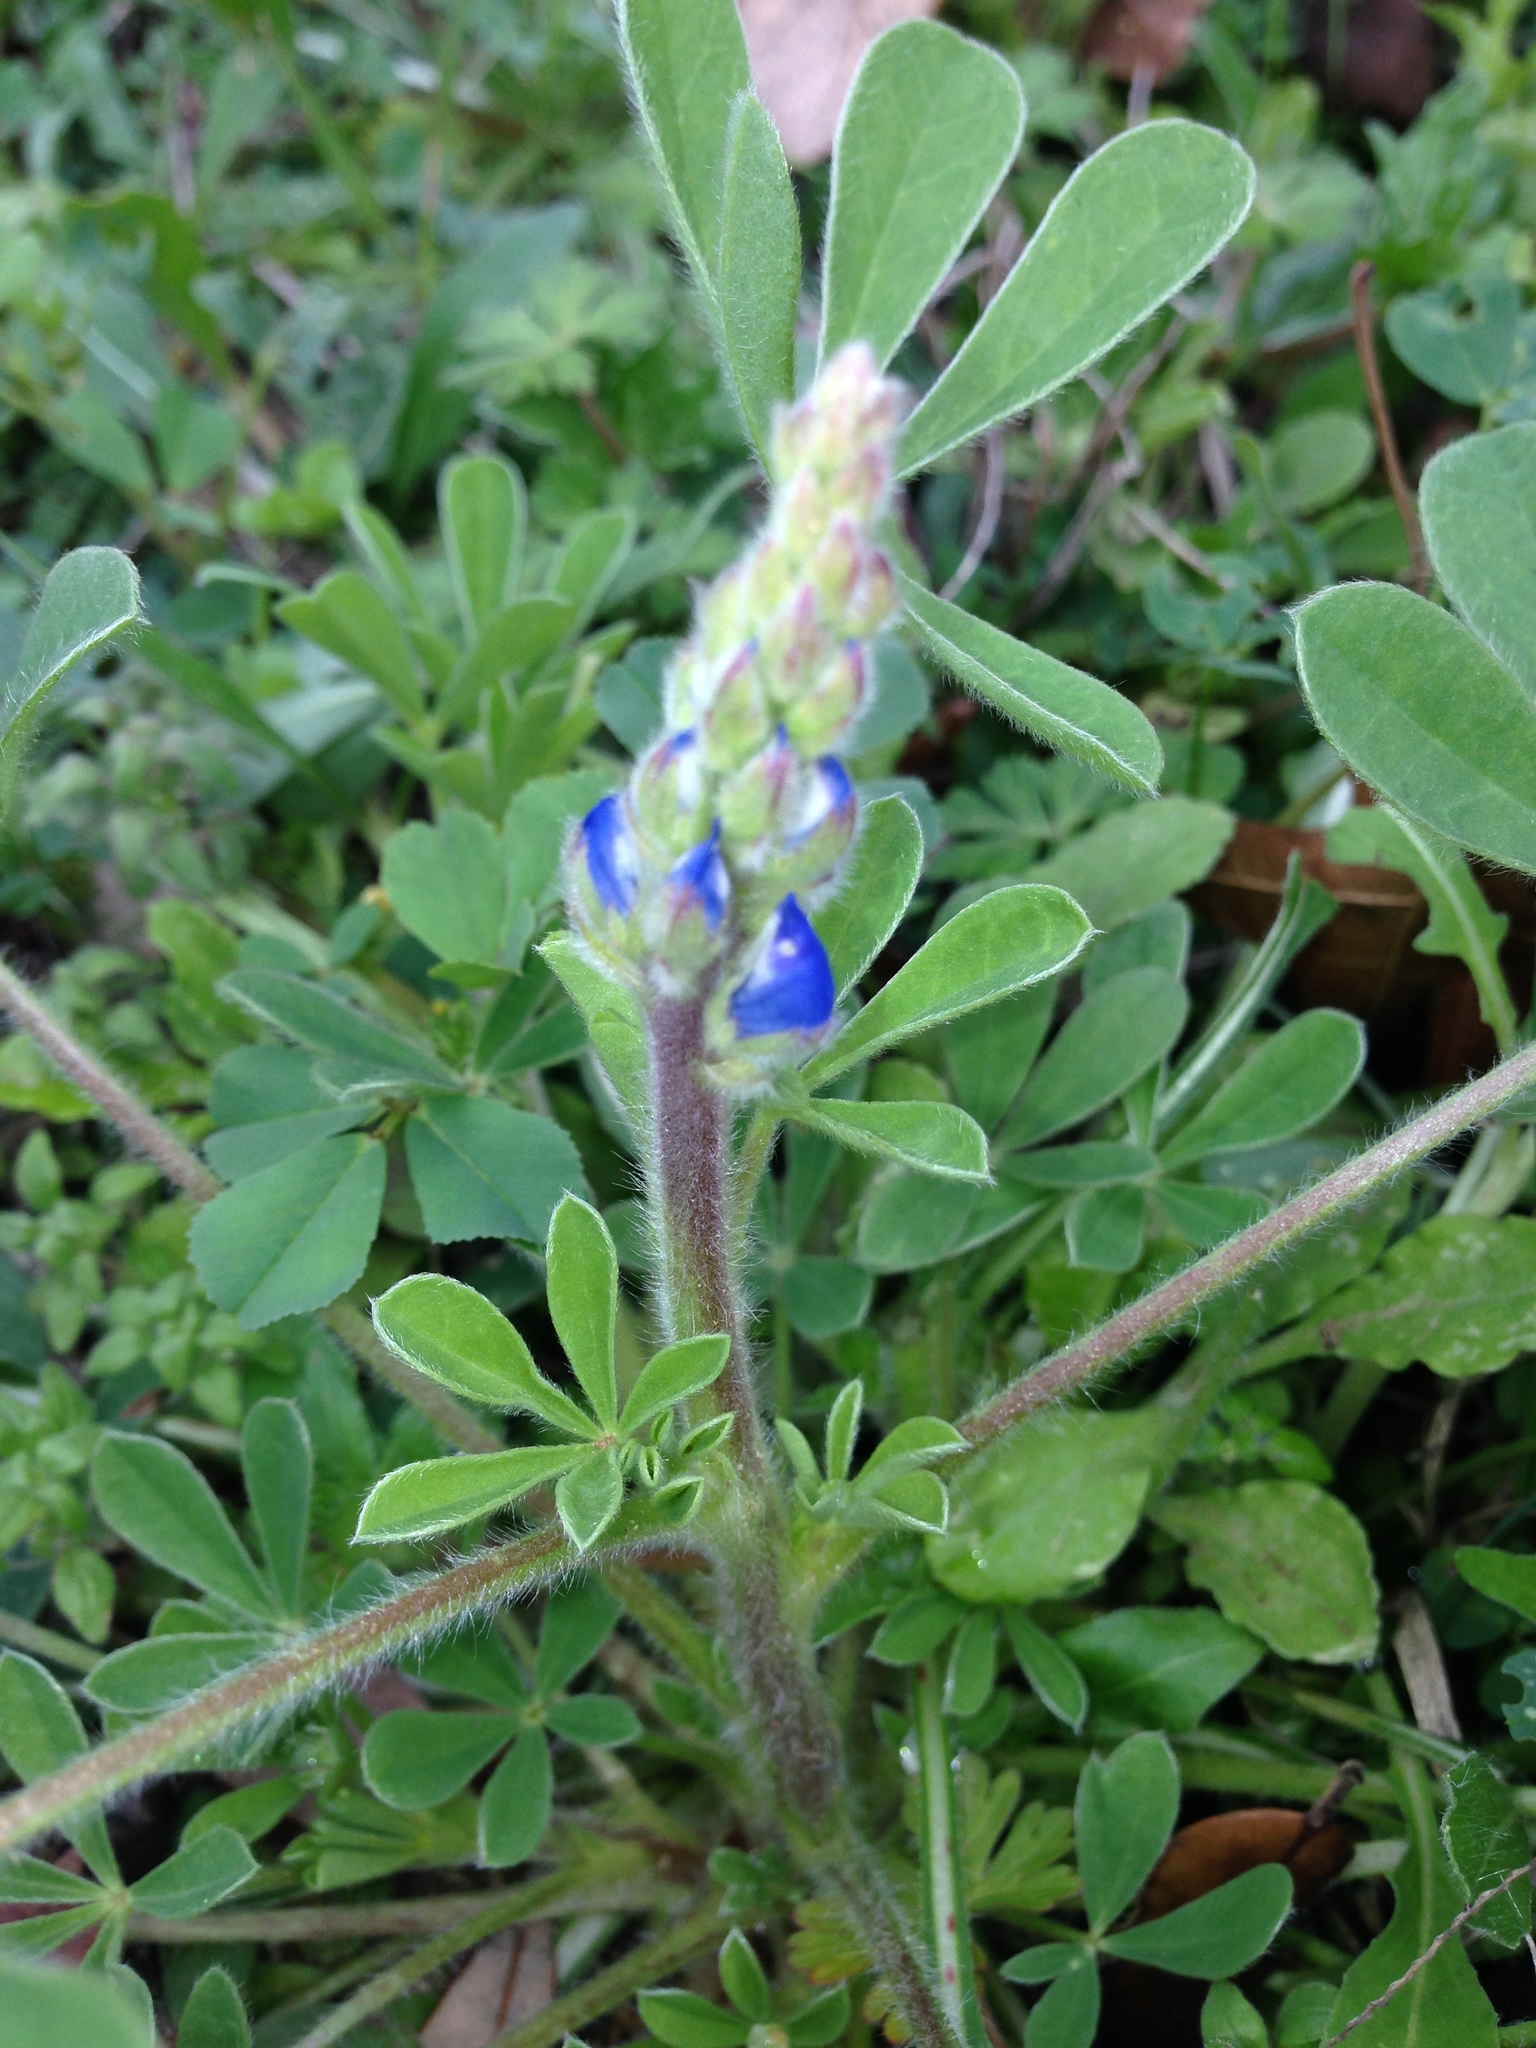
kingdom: Plantae
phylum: Tracheophyta
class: Magnoliopsida
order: Fabales
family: Fabaceae
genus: Lupinus
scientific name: Lupinus texensis
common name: Texas bluebonnet
